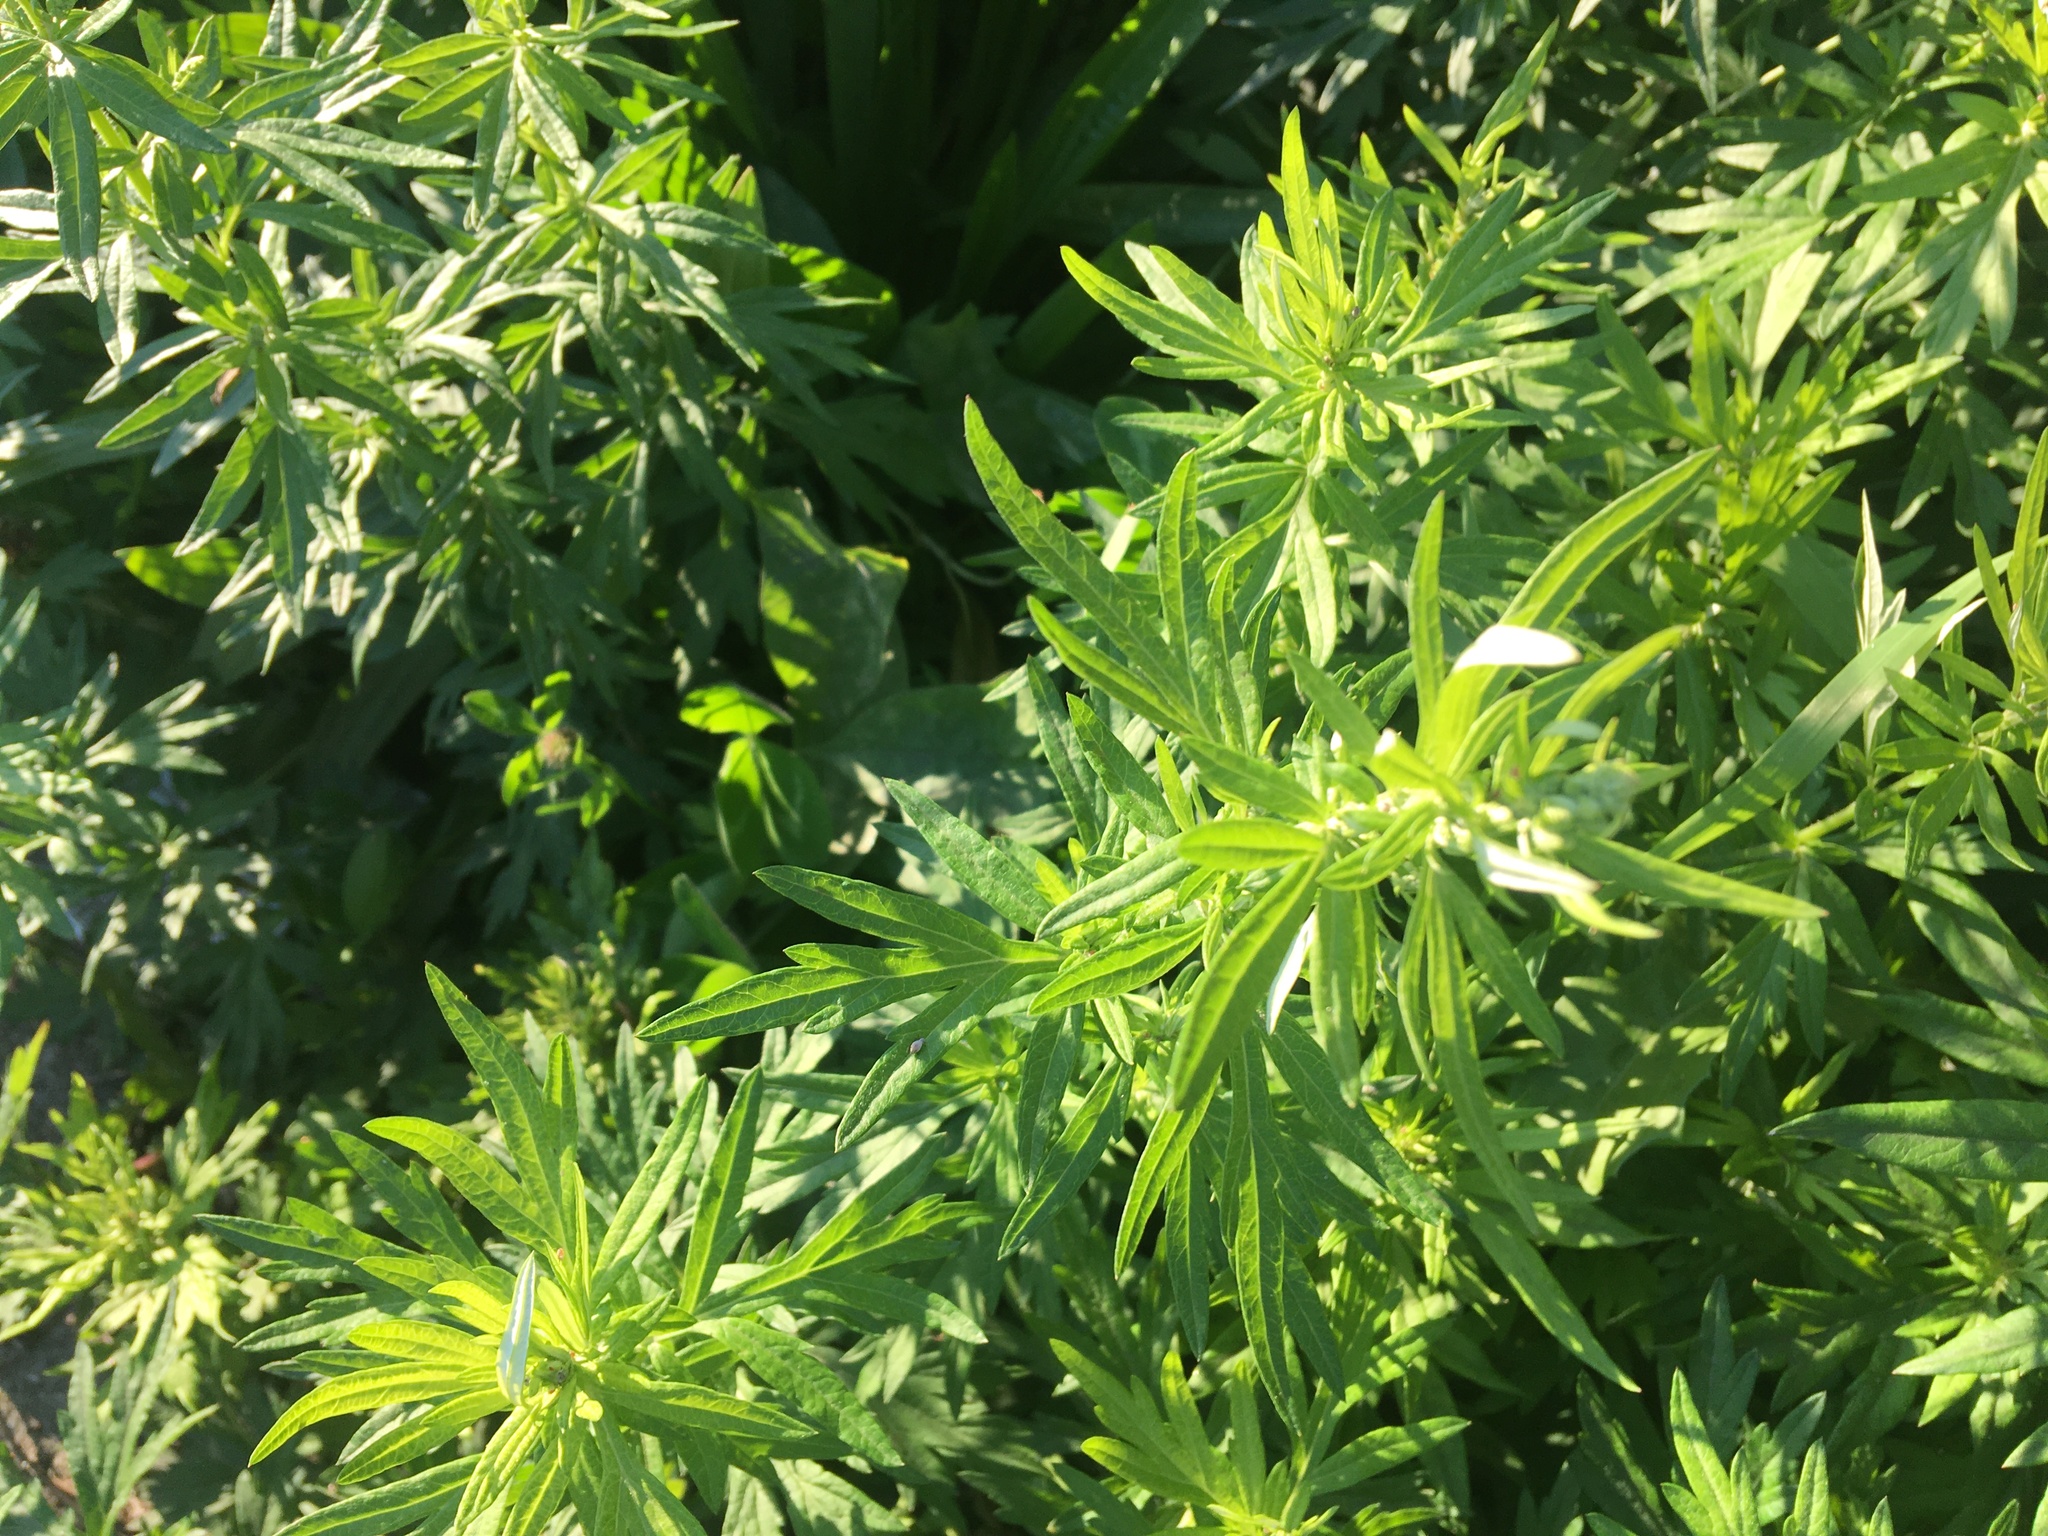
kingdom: Plantae
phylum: Tracheophyta
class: Magnoliopsida
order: Asterales
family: Asteraceae
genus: Artemisia
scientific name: Artemisia vulgaris
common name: Mugwort
